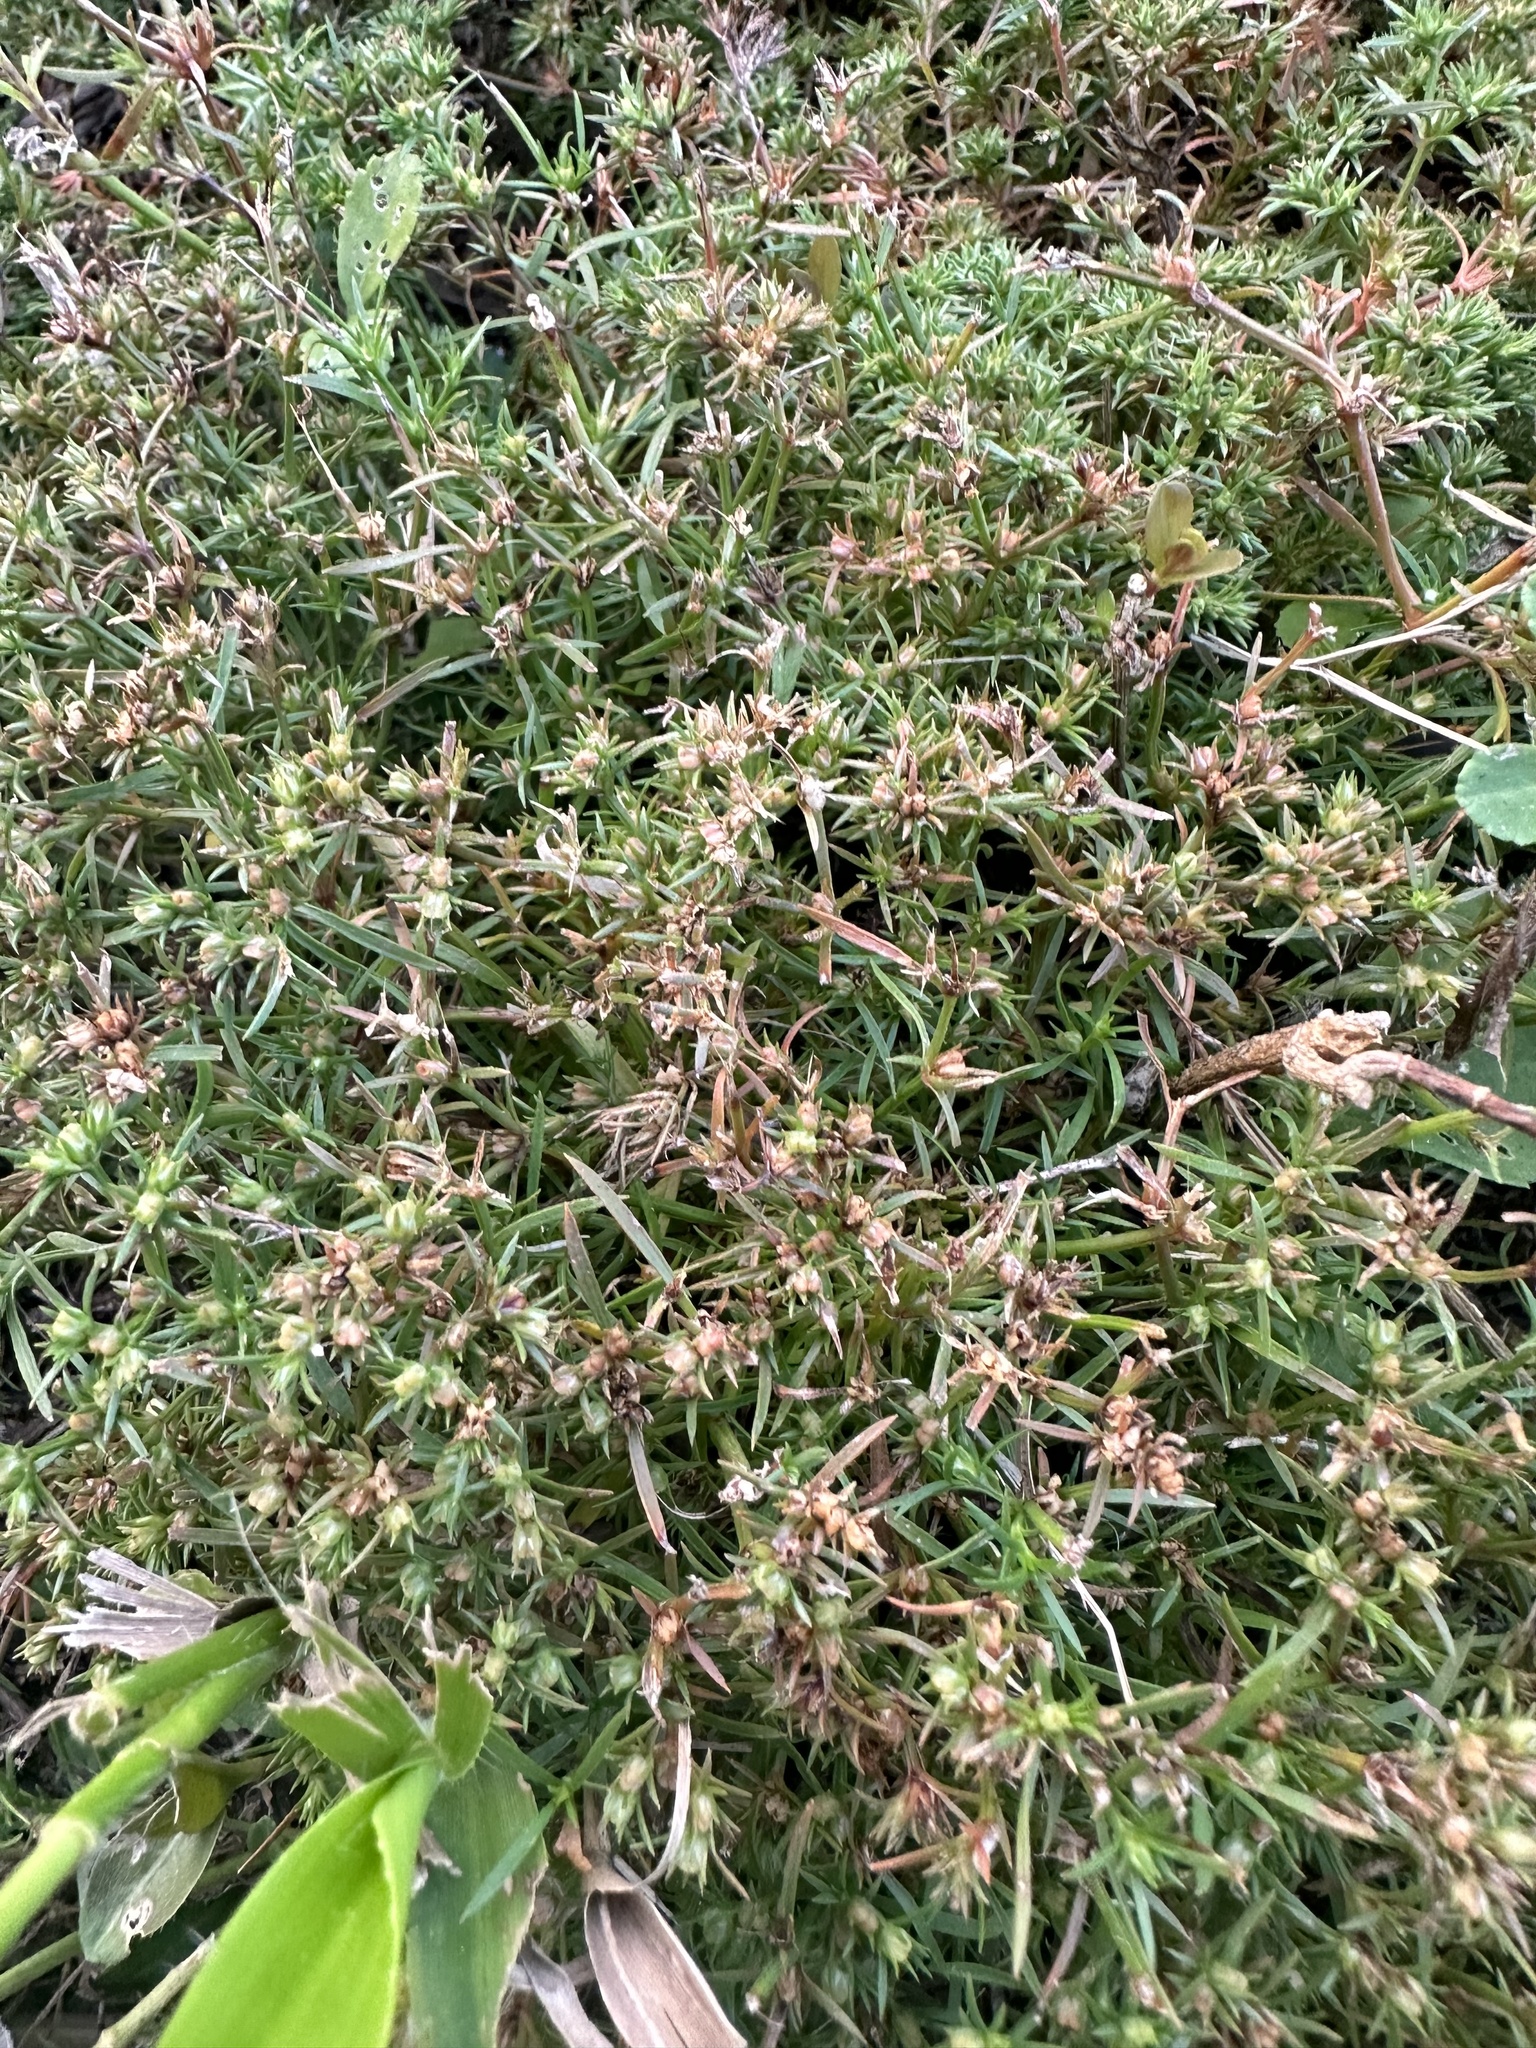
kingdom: Plantae
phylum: Tracheophyta
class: Magnoliopsida
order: Lamiales
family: Tetrachondraceae
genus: Polypremum
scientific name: Polypremum procumbens
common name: Juniper-leaf
